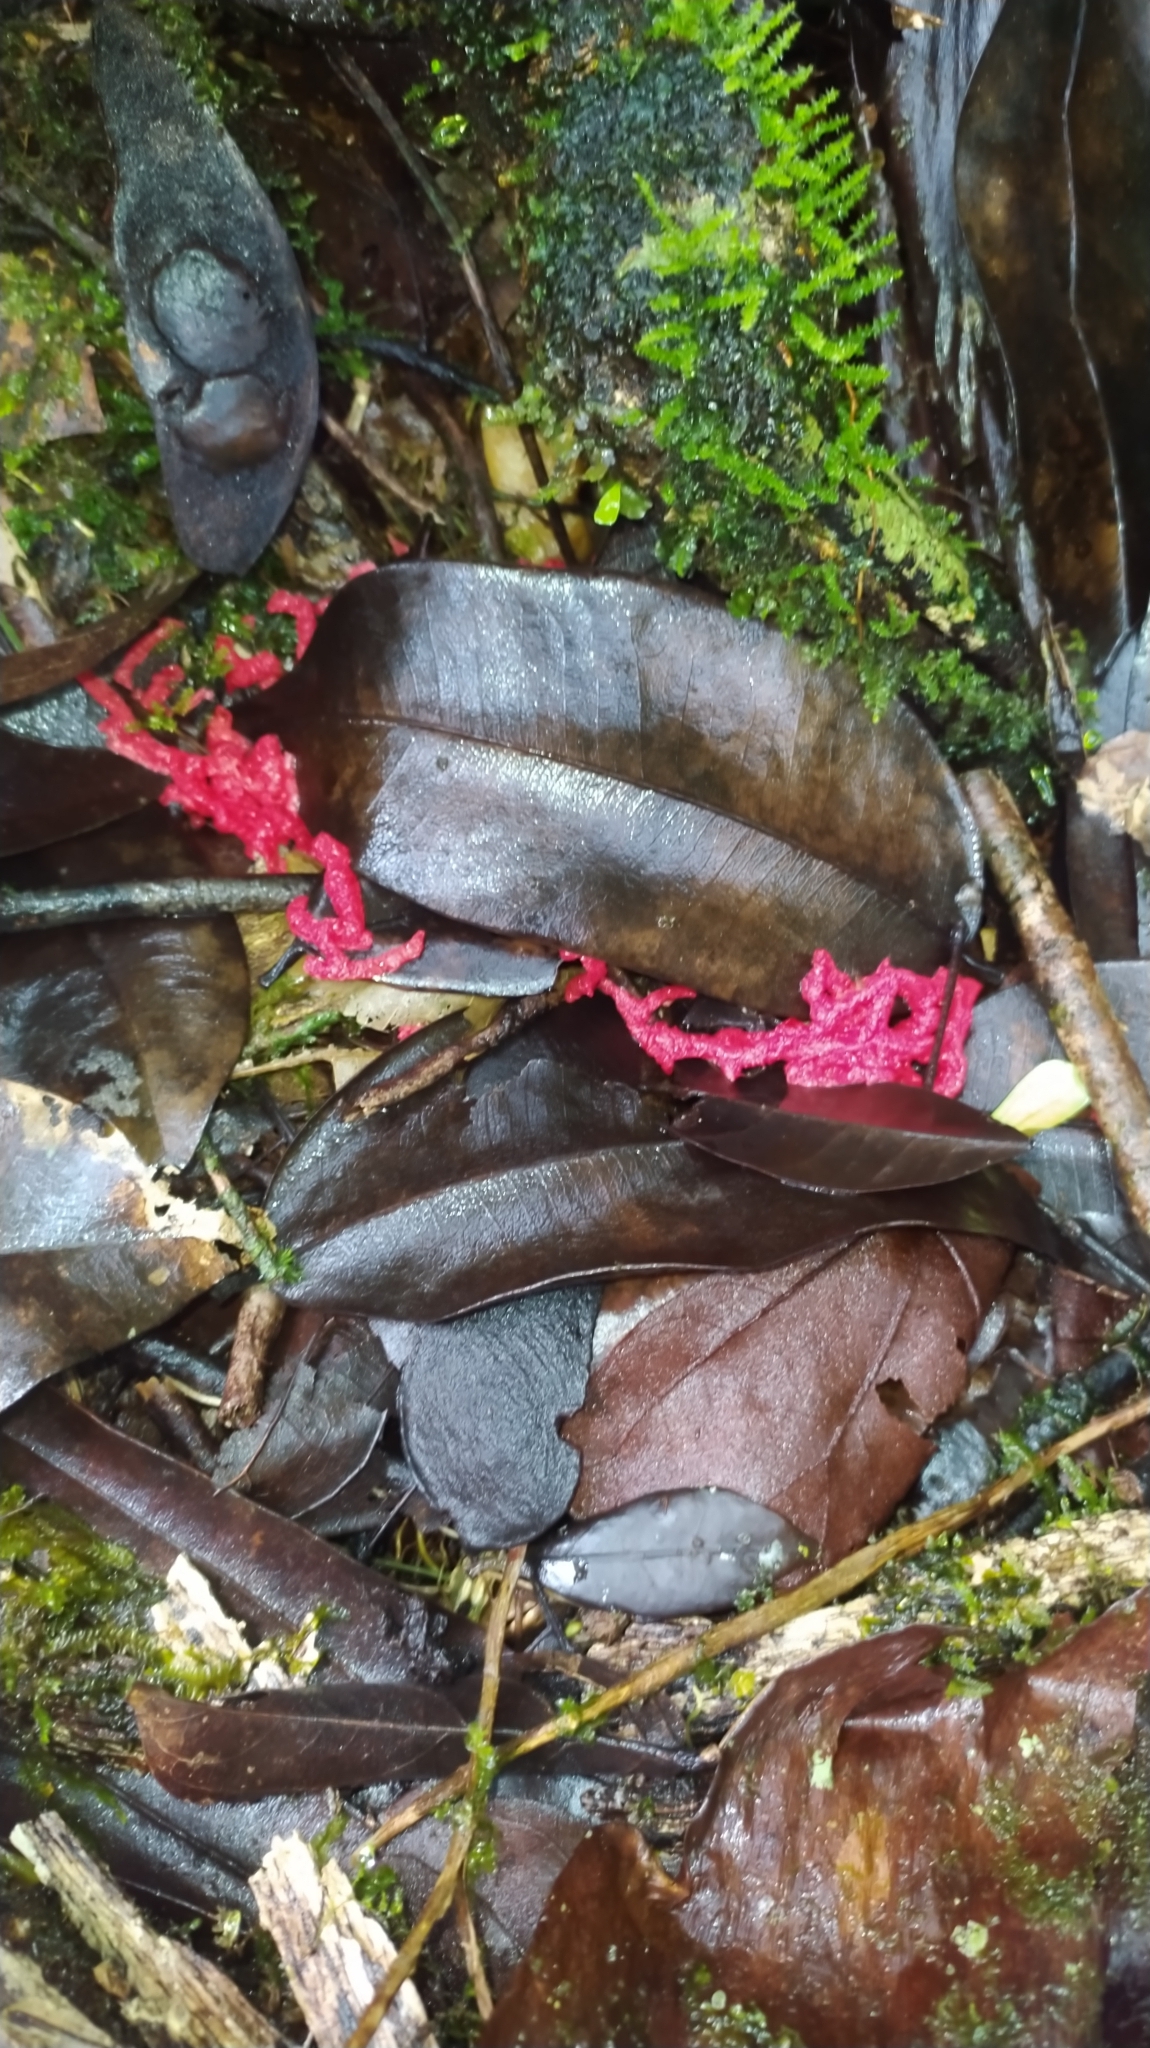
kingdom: Fungi
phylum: Basidiomycota
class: Agaricomycetes
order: Phallales
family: Phallaceae
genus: Clathrus
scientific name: Clathrus
